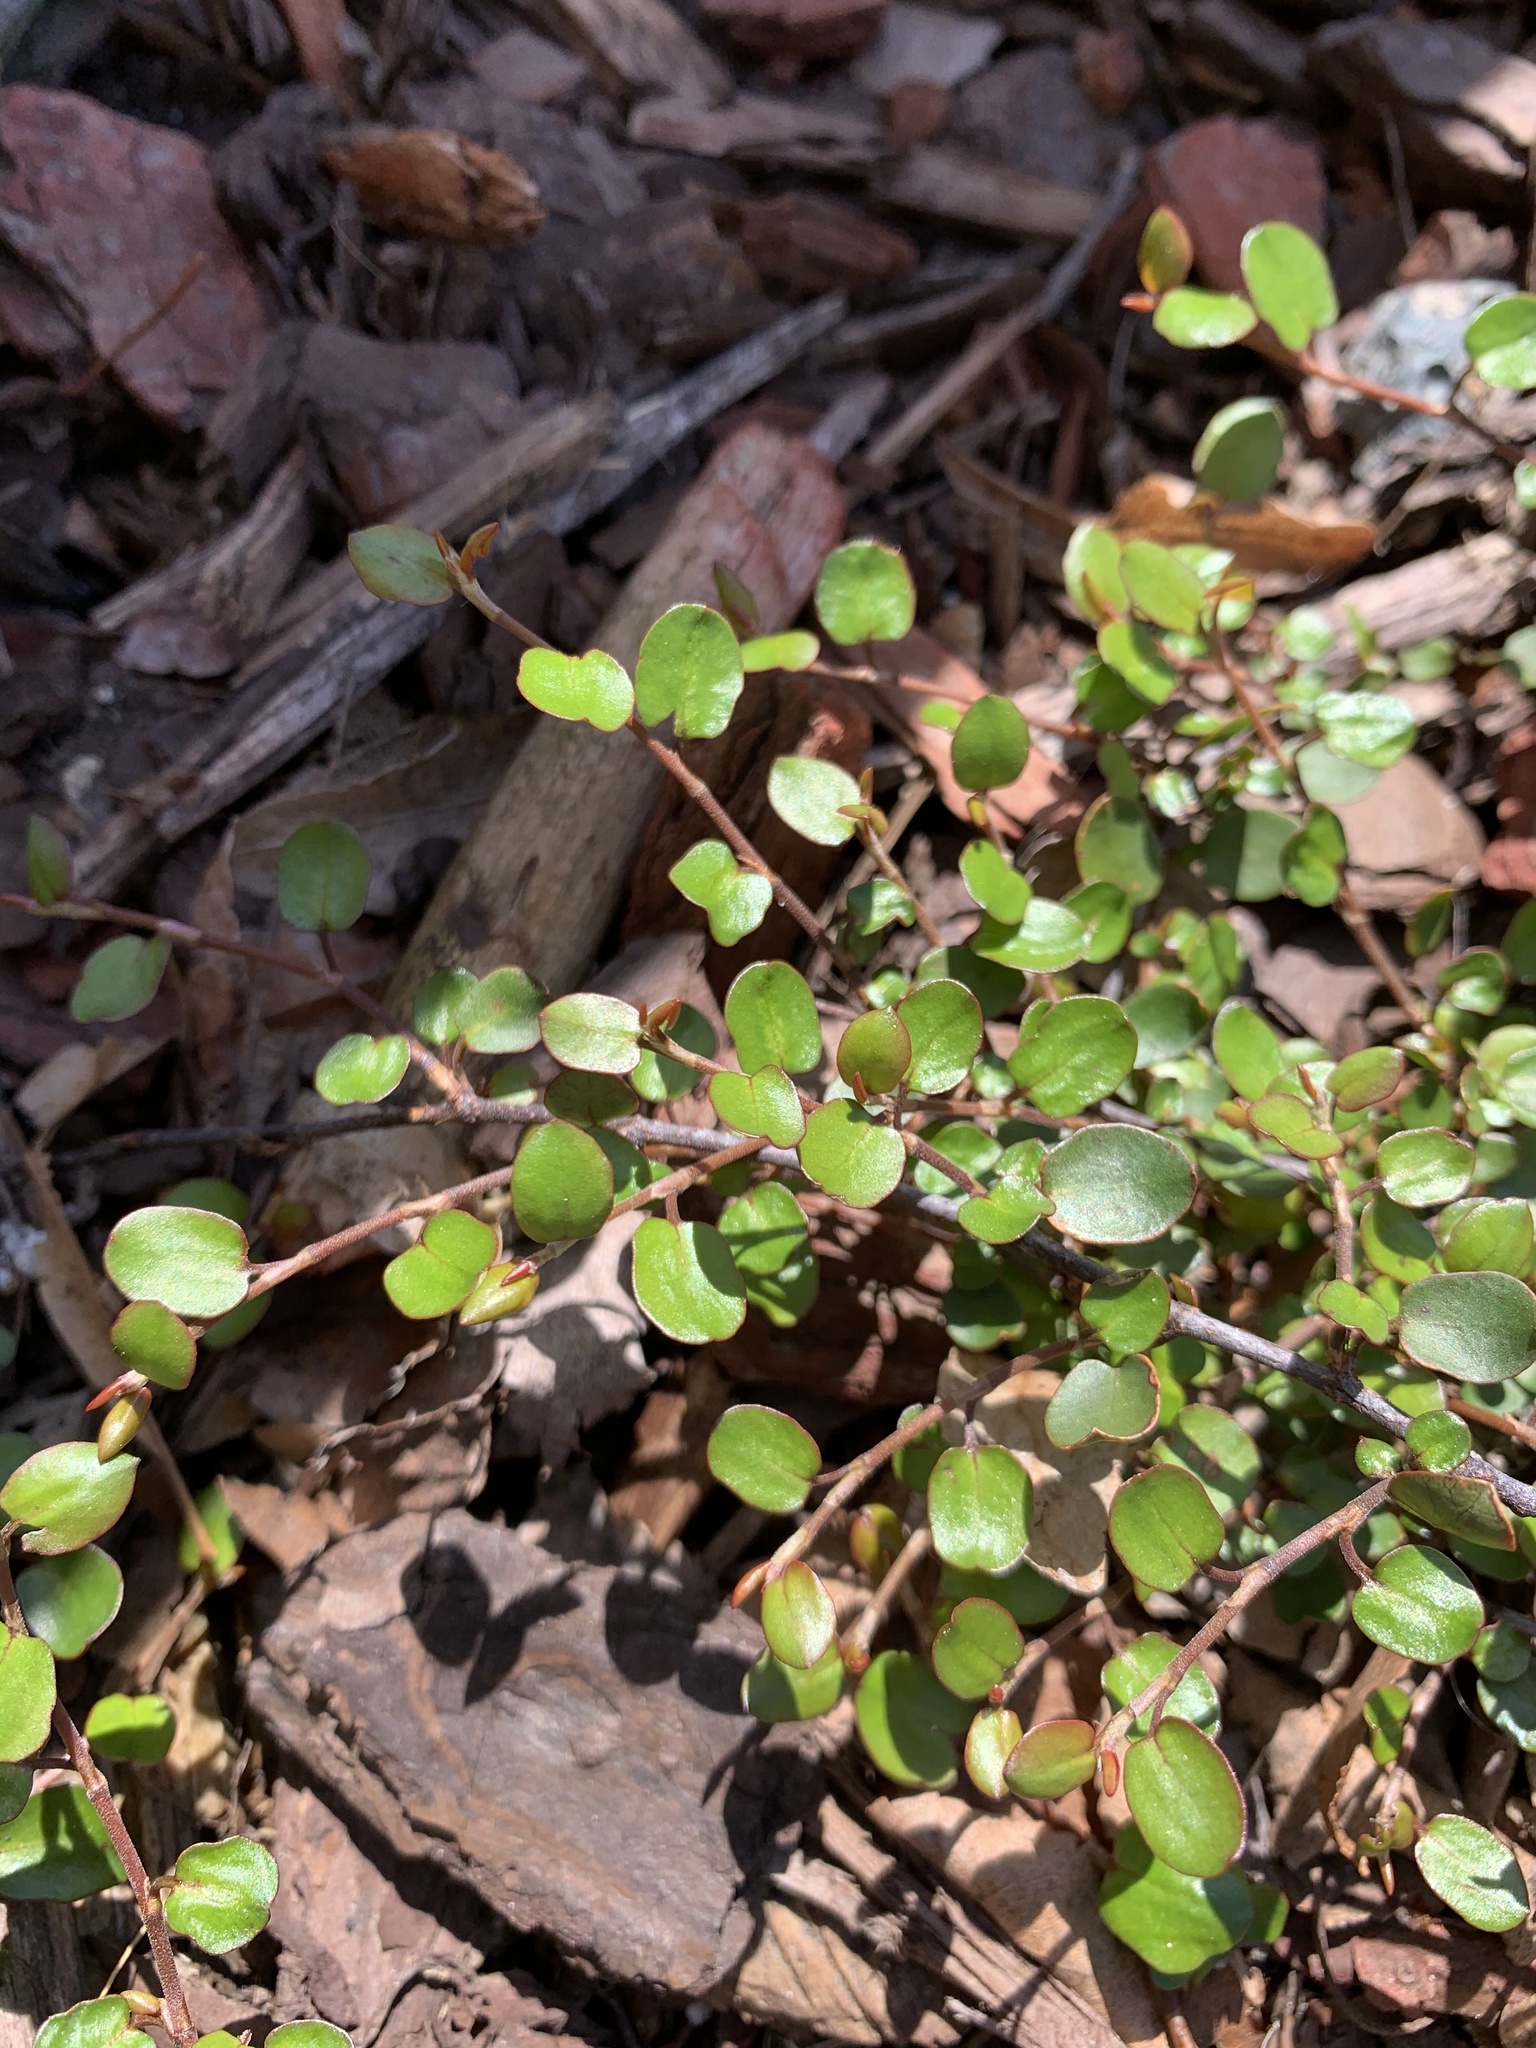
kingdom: Plantae
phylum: Tracheophyta
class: Magnoliopsida
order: Caryophyllales
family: Polygonaceae
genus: Muehlenbeckia
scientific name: Muehlenbeckia axillaris
